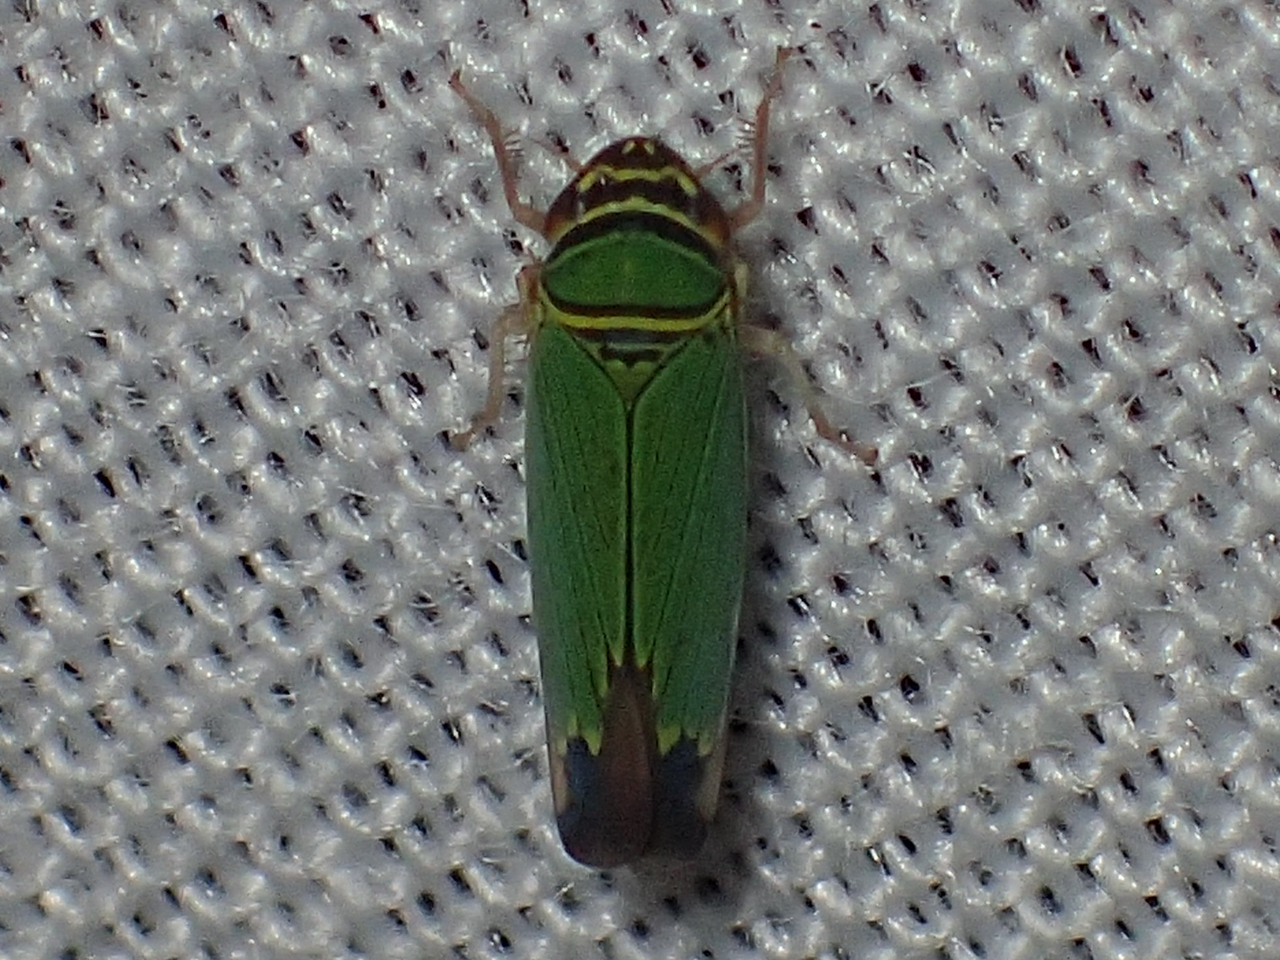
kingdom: Animalia
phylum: Arthropoda
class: Insecta
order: Hemiptera
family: Cicadellidae
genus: Tylozygus
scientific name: Tylozygus geometricus
